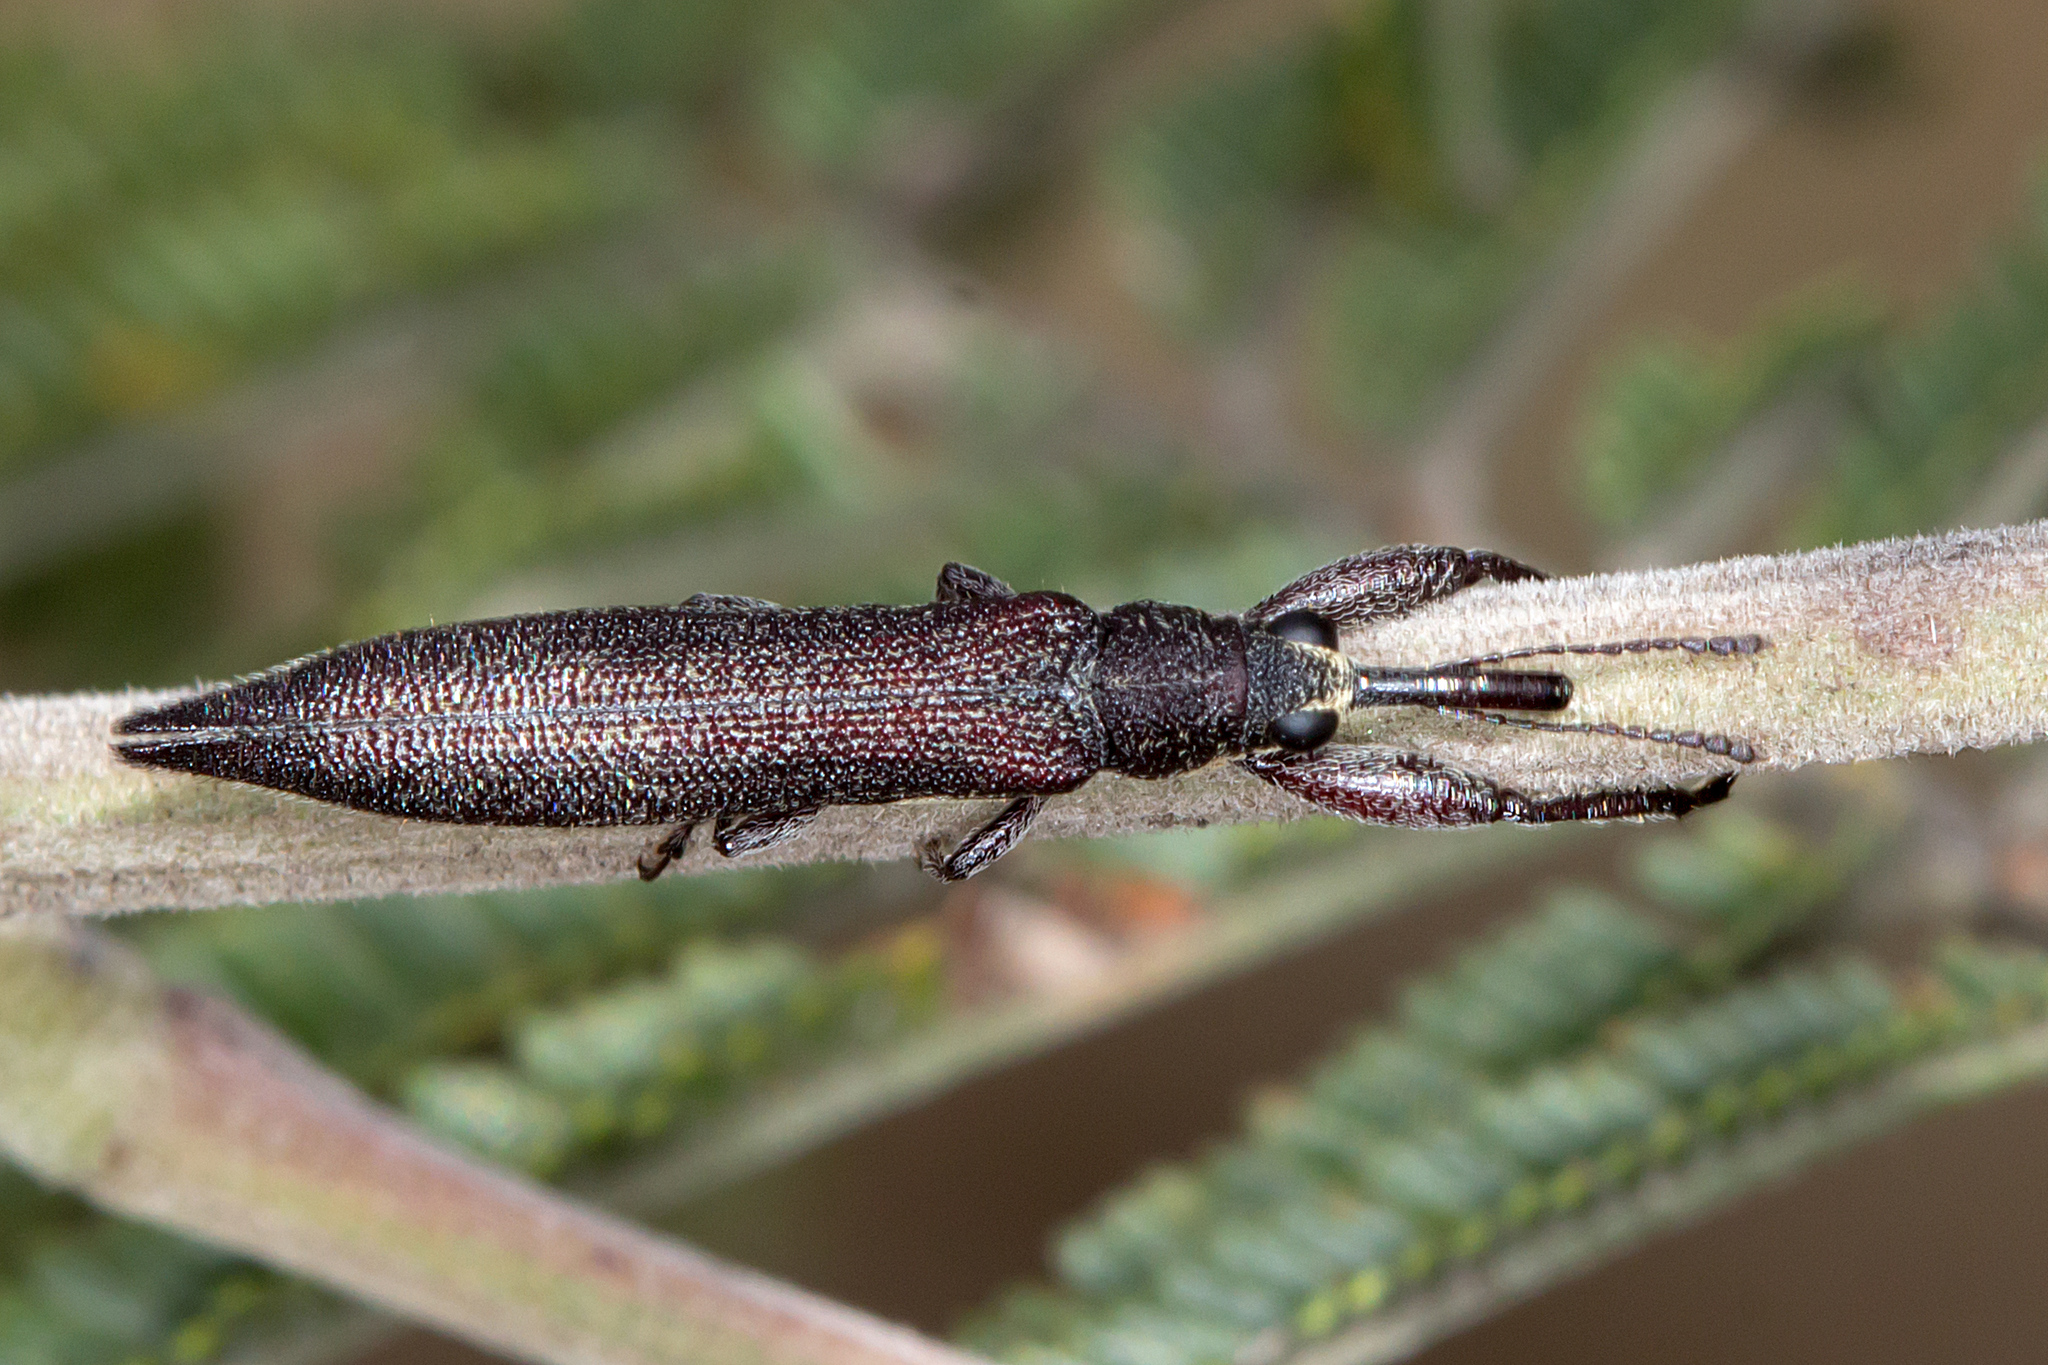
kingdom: Animalia
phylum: Arthropoda
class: Insecta
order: Coleoptera
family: Belidae
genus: Rhinotia
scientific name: Rhinotia
